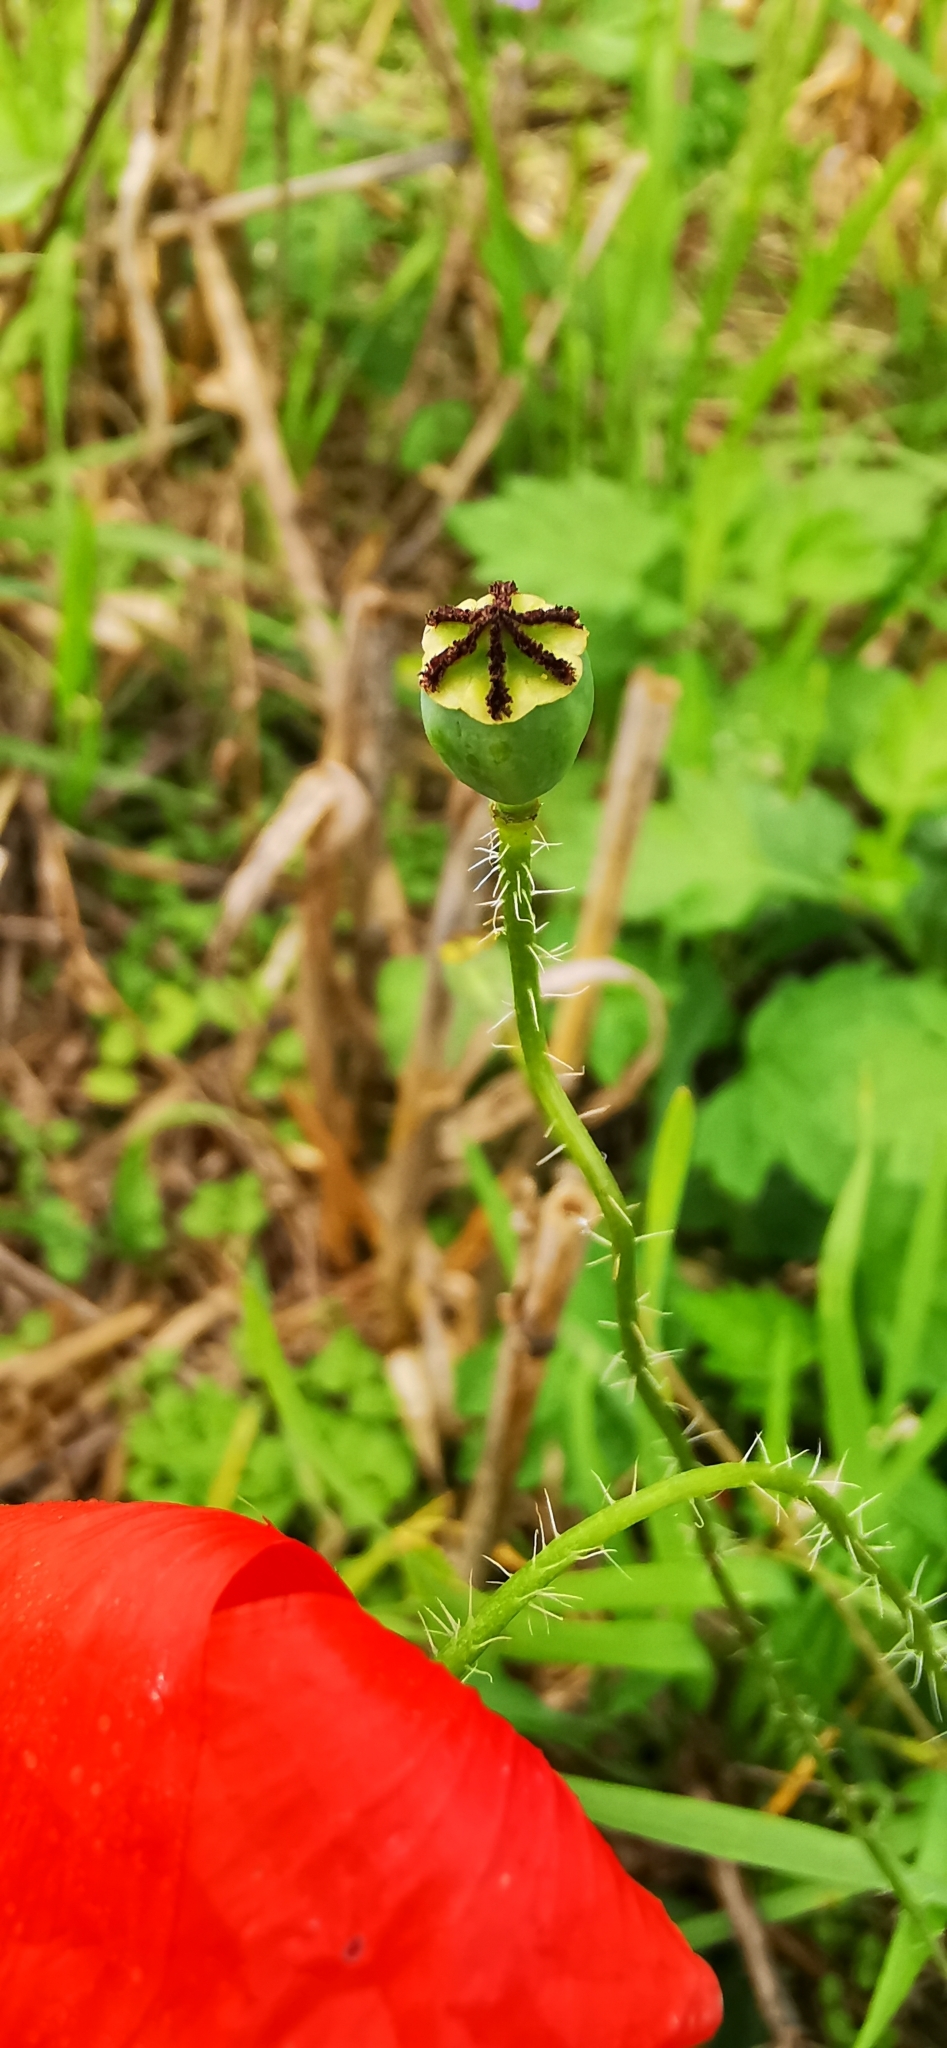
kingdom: Plantae
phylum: Tracheophyta
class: Magnoliopsida
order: Ranunculales
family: Papaveraceae
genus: Papaver
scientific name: Papaver rhoeas
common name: Corn poppy
